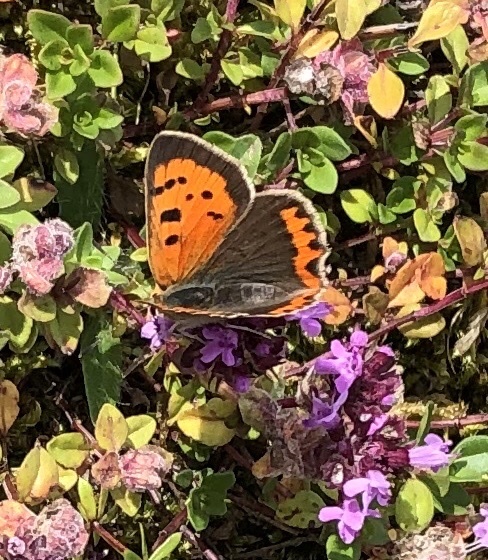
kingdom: Animalia
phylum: Arthropoda
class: Insecta
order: Lepidoptera
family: Lycaenidae
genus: Lycaena
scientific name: Lycaena phlaeas
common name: Small copper
